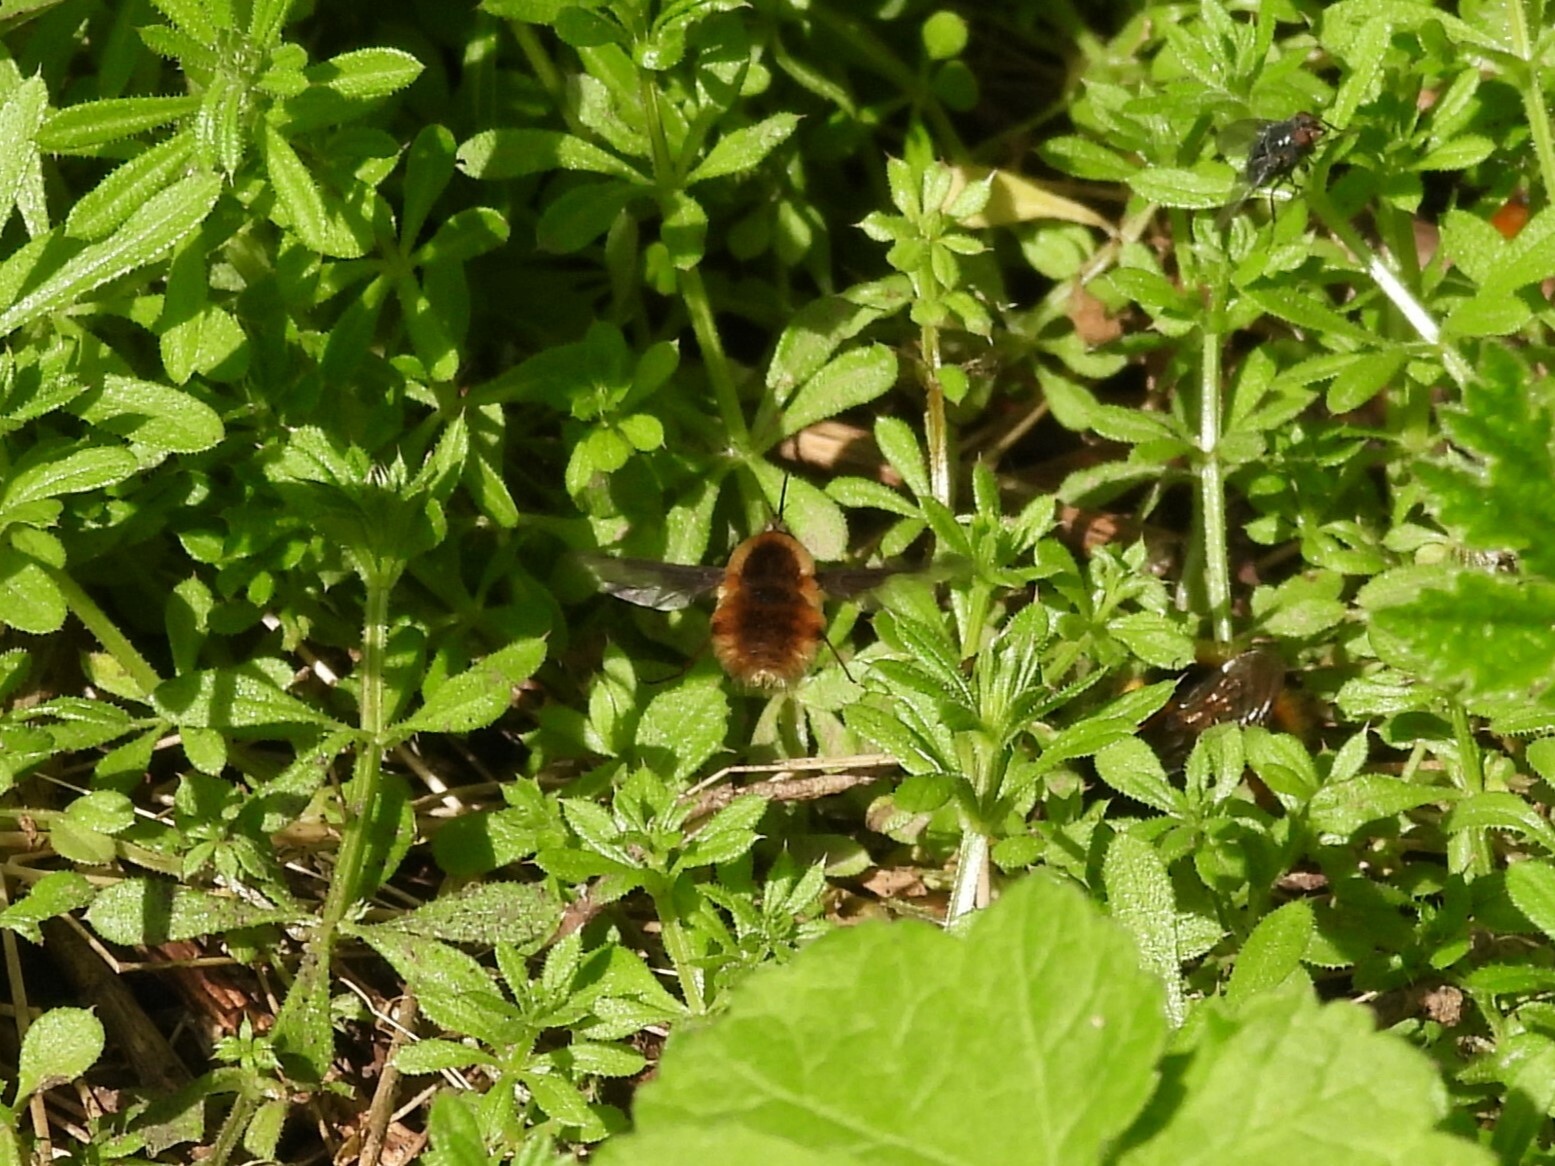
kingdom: Animalia
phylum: Arthropoda
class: Insecta
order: Diptera
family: Bombyliidae
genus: Bombylius
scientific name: Bombylius major
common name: Bee fly
